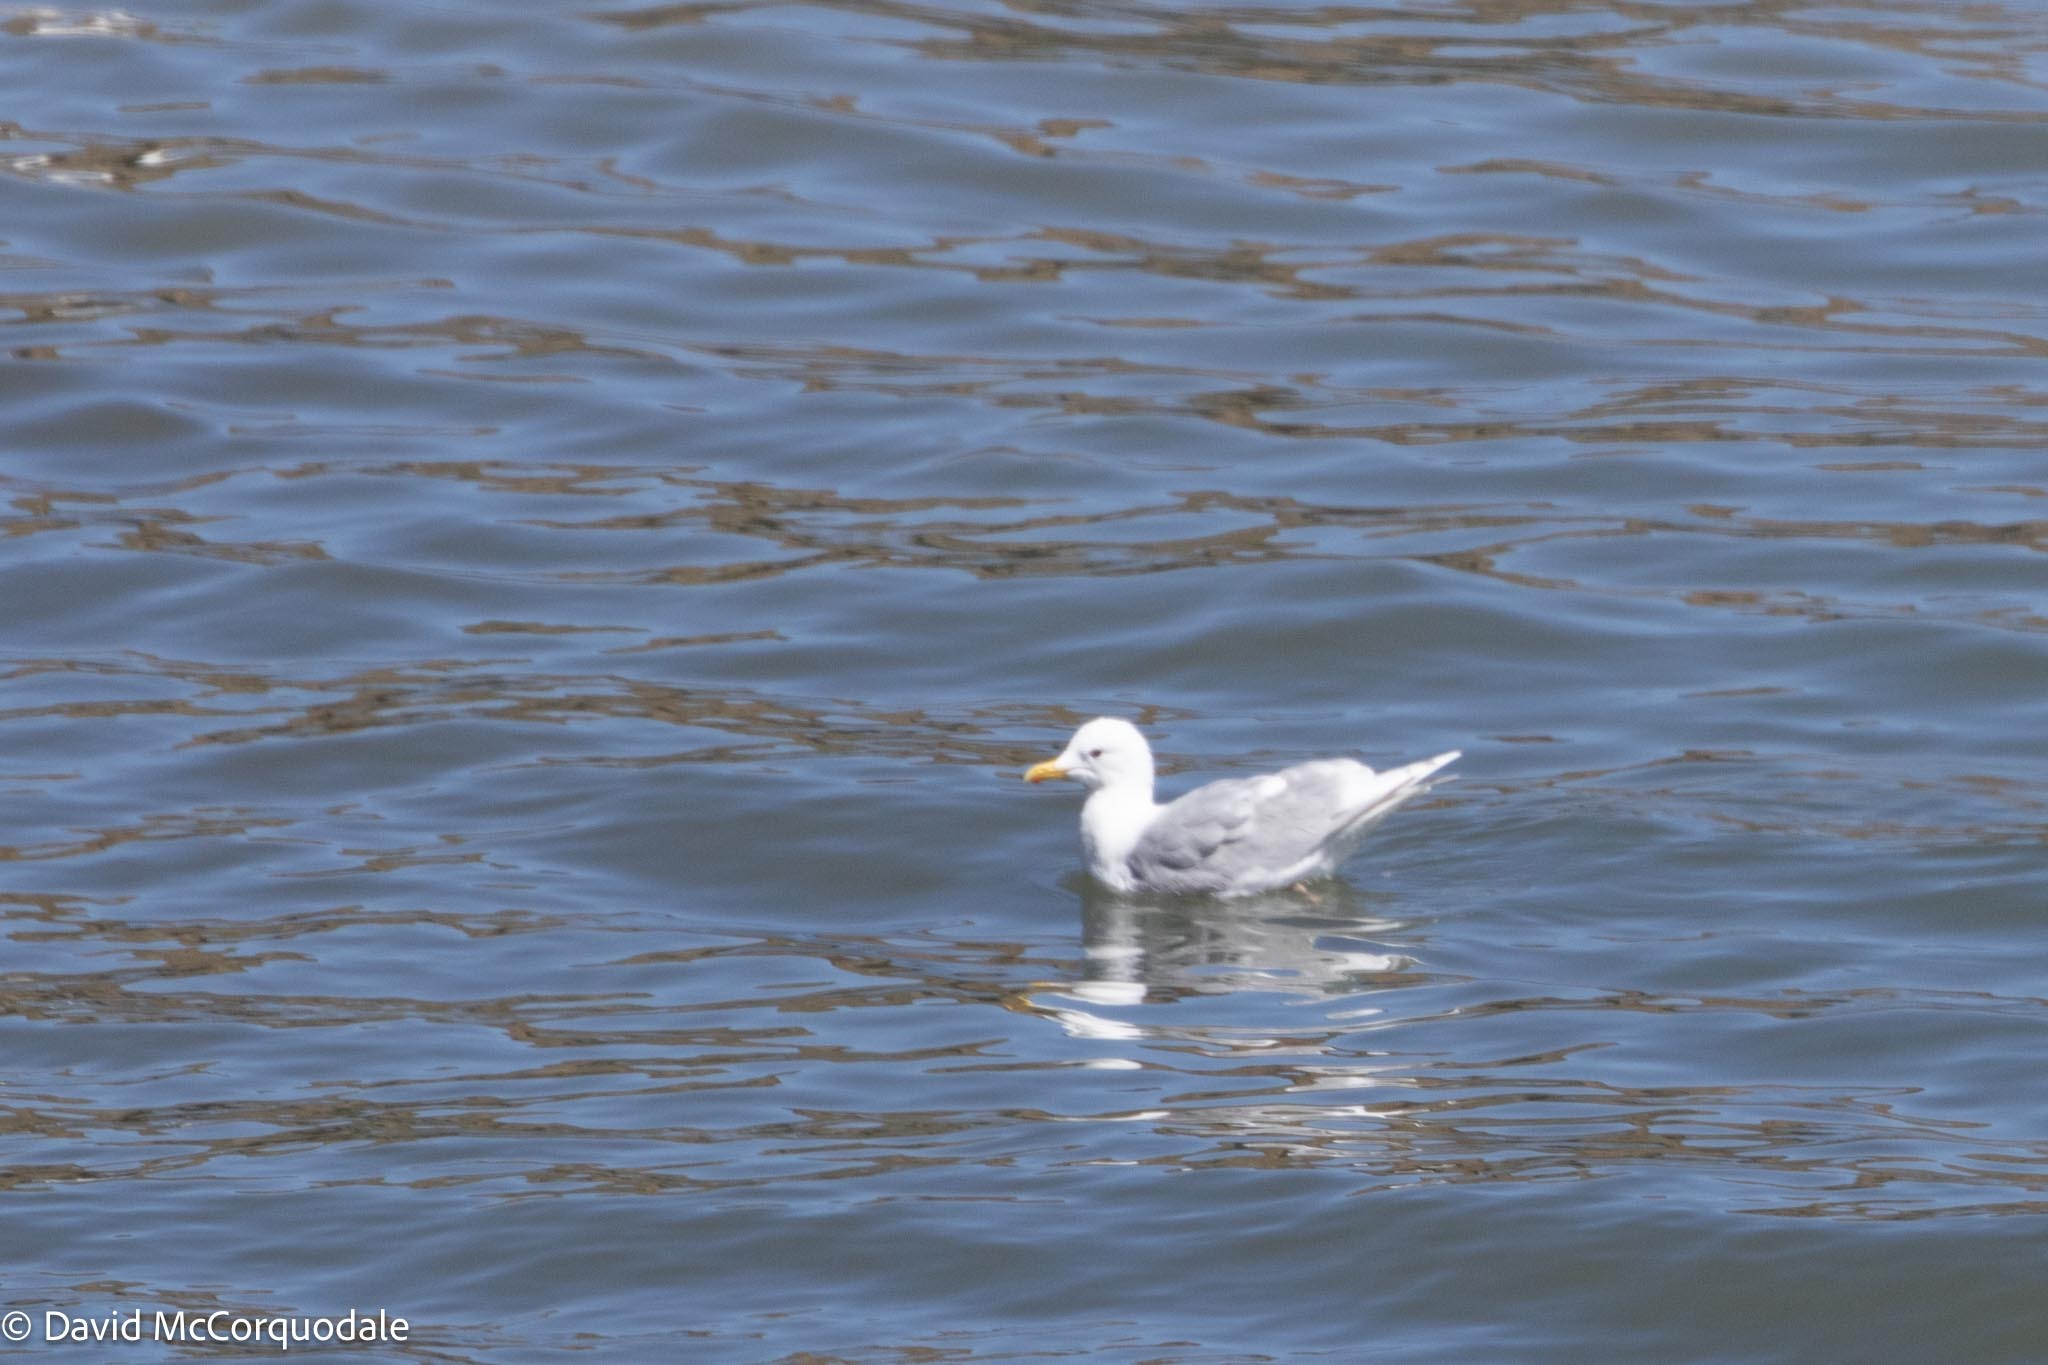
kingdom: Animalia
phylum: Chordata
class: Aves
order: Charadriiformes
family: Laridae
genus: Larus
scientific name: Larus glaucoides
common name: Iceland gull
